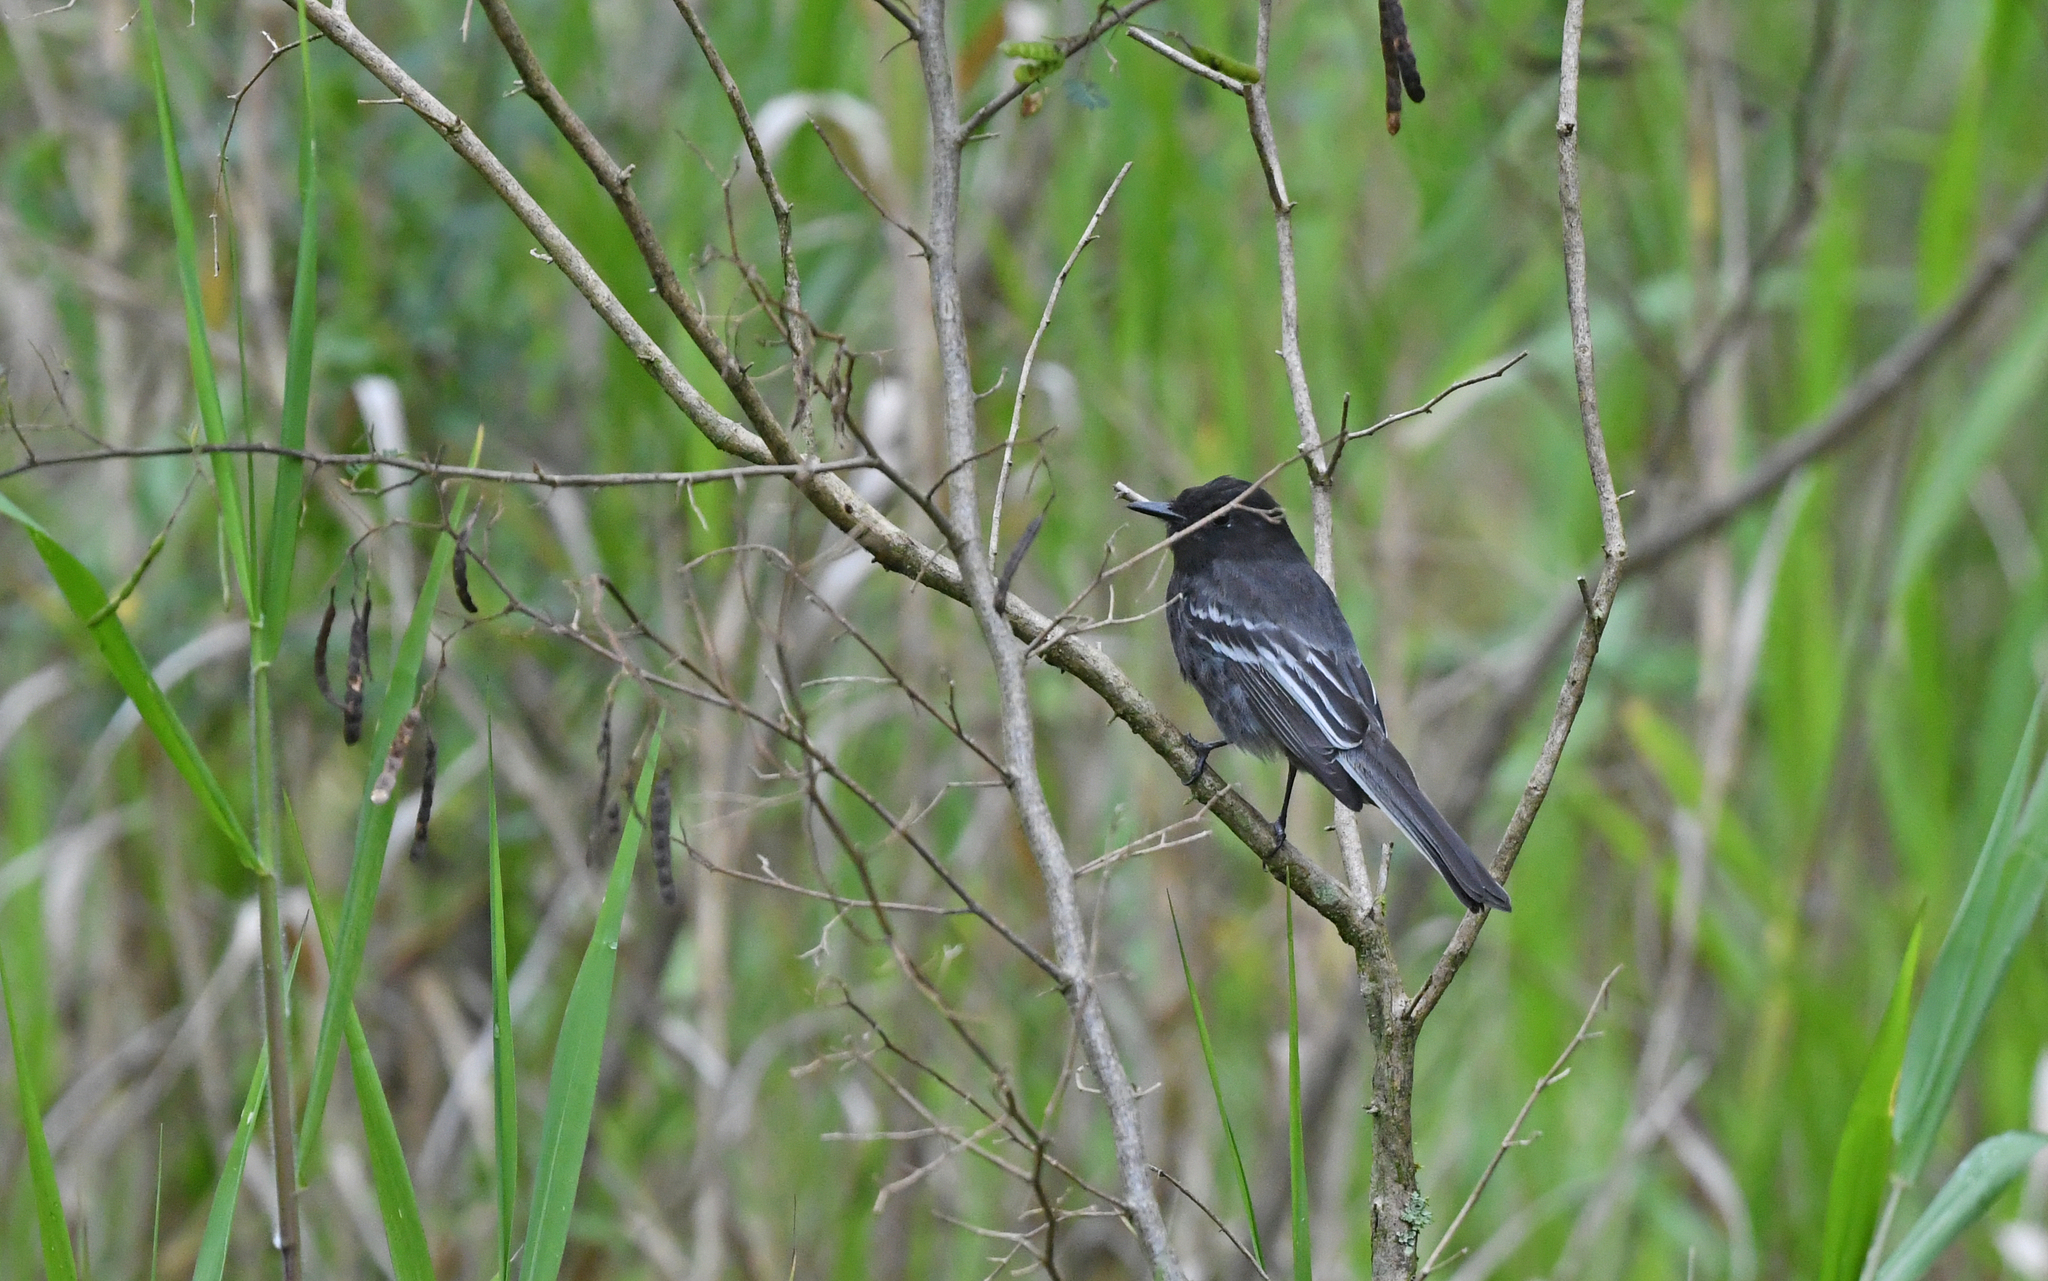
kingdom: Animalia
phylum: Chordata
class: Aves
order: Passeriformes
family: Tyrannidae
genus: Sayornis
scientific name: Sayornis nigricans
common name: Black phoebe
